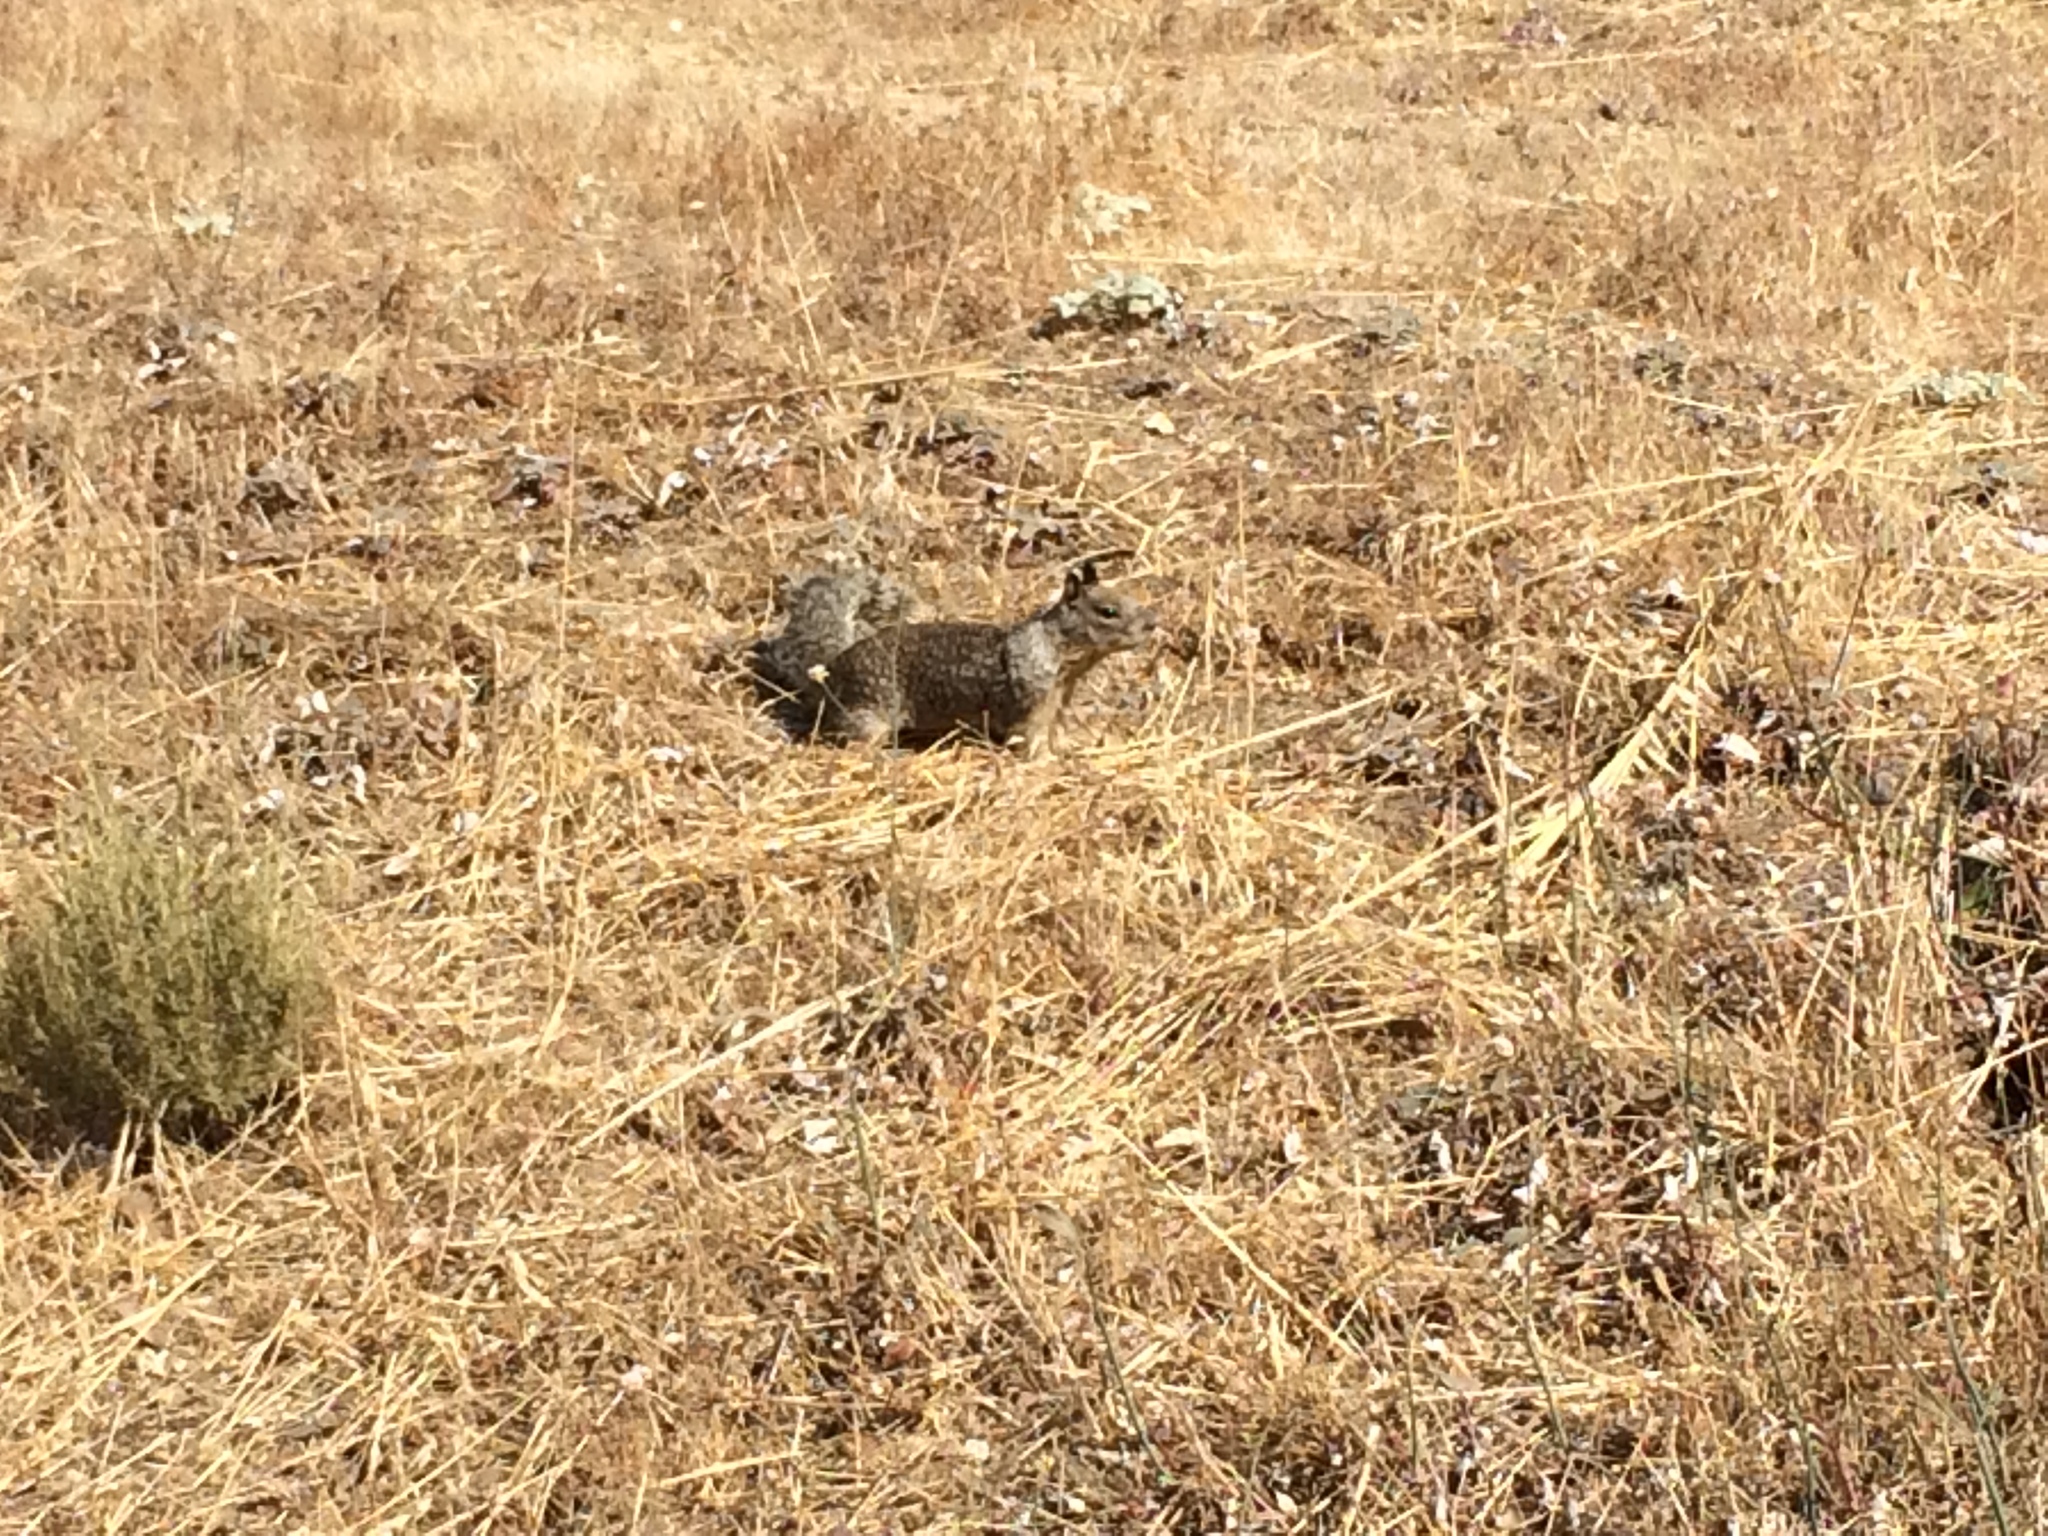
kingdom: Animalia
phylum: Chordata
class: Mammalia
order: Rodentia
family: Sciuridae
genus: Otospermophilus
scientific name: Otospermophilus beecheyi
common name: California ground squirrel
